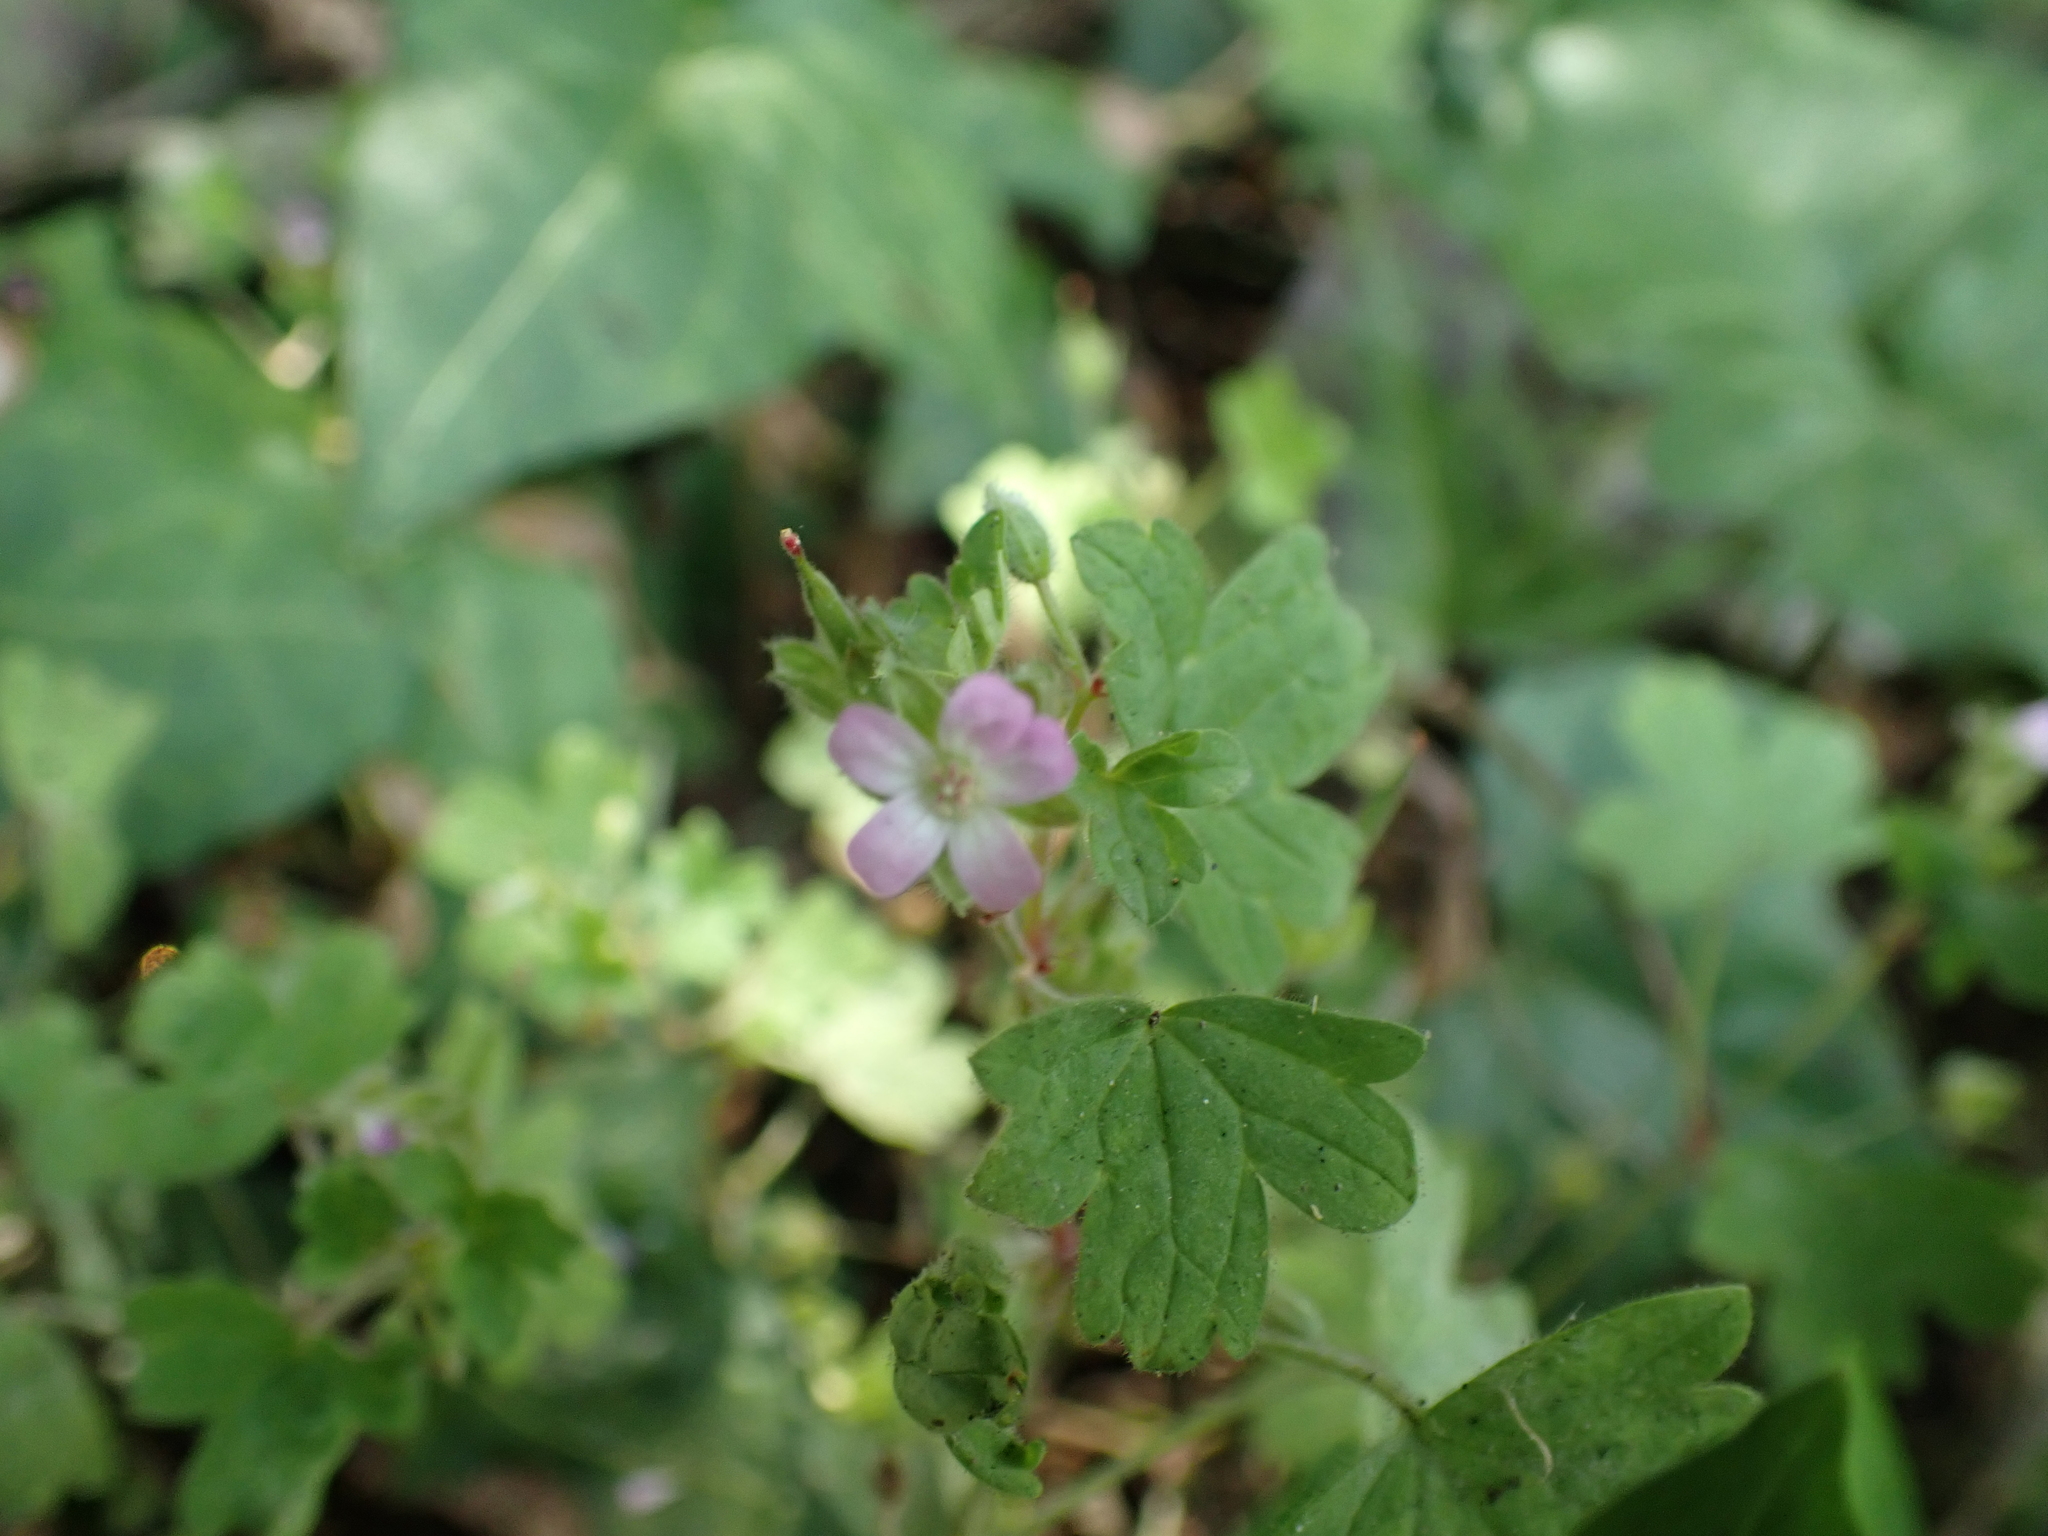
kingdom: Plantae
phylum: Tracheophyta
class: Magnoliopsida
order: Geraniales
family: Geraniaceae
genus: Geranium
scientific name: Geranium rotundifolium
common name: Round-leaved crane's-bill
